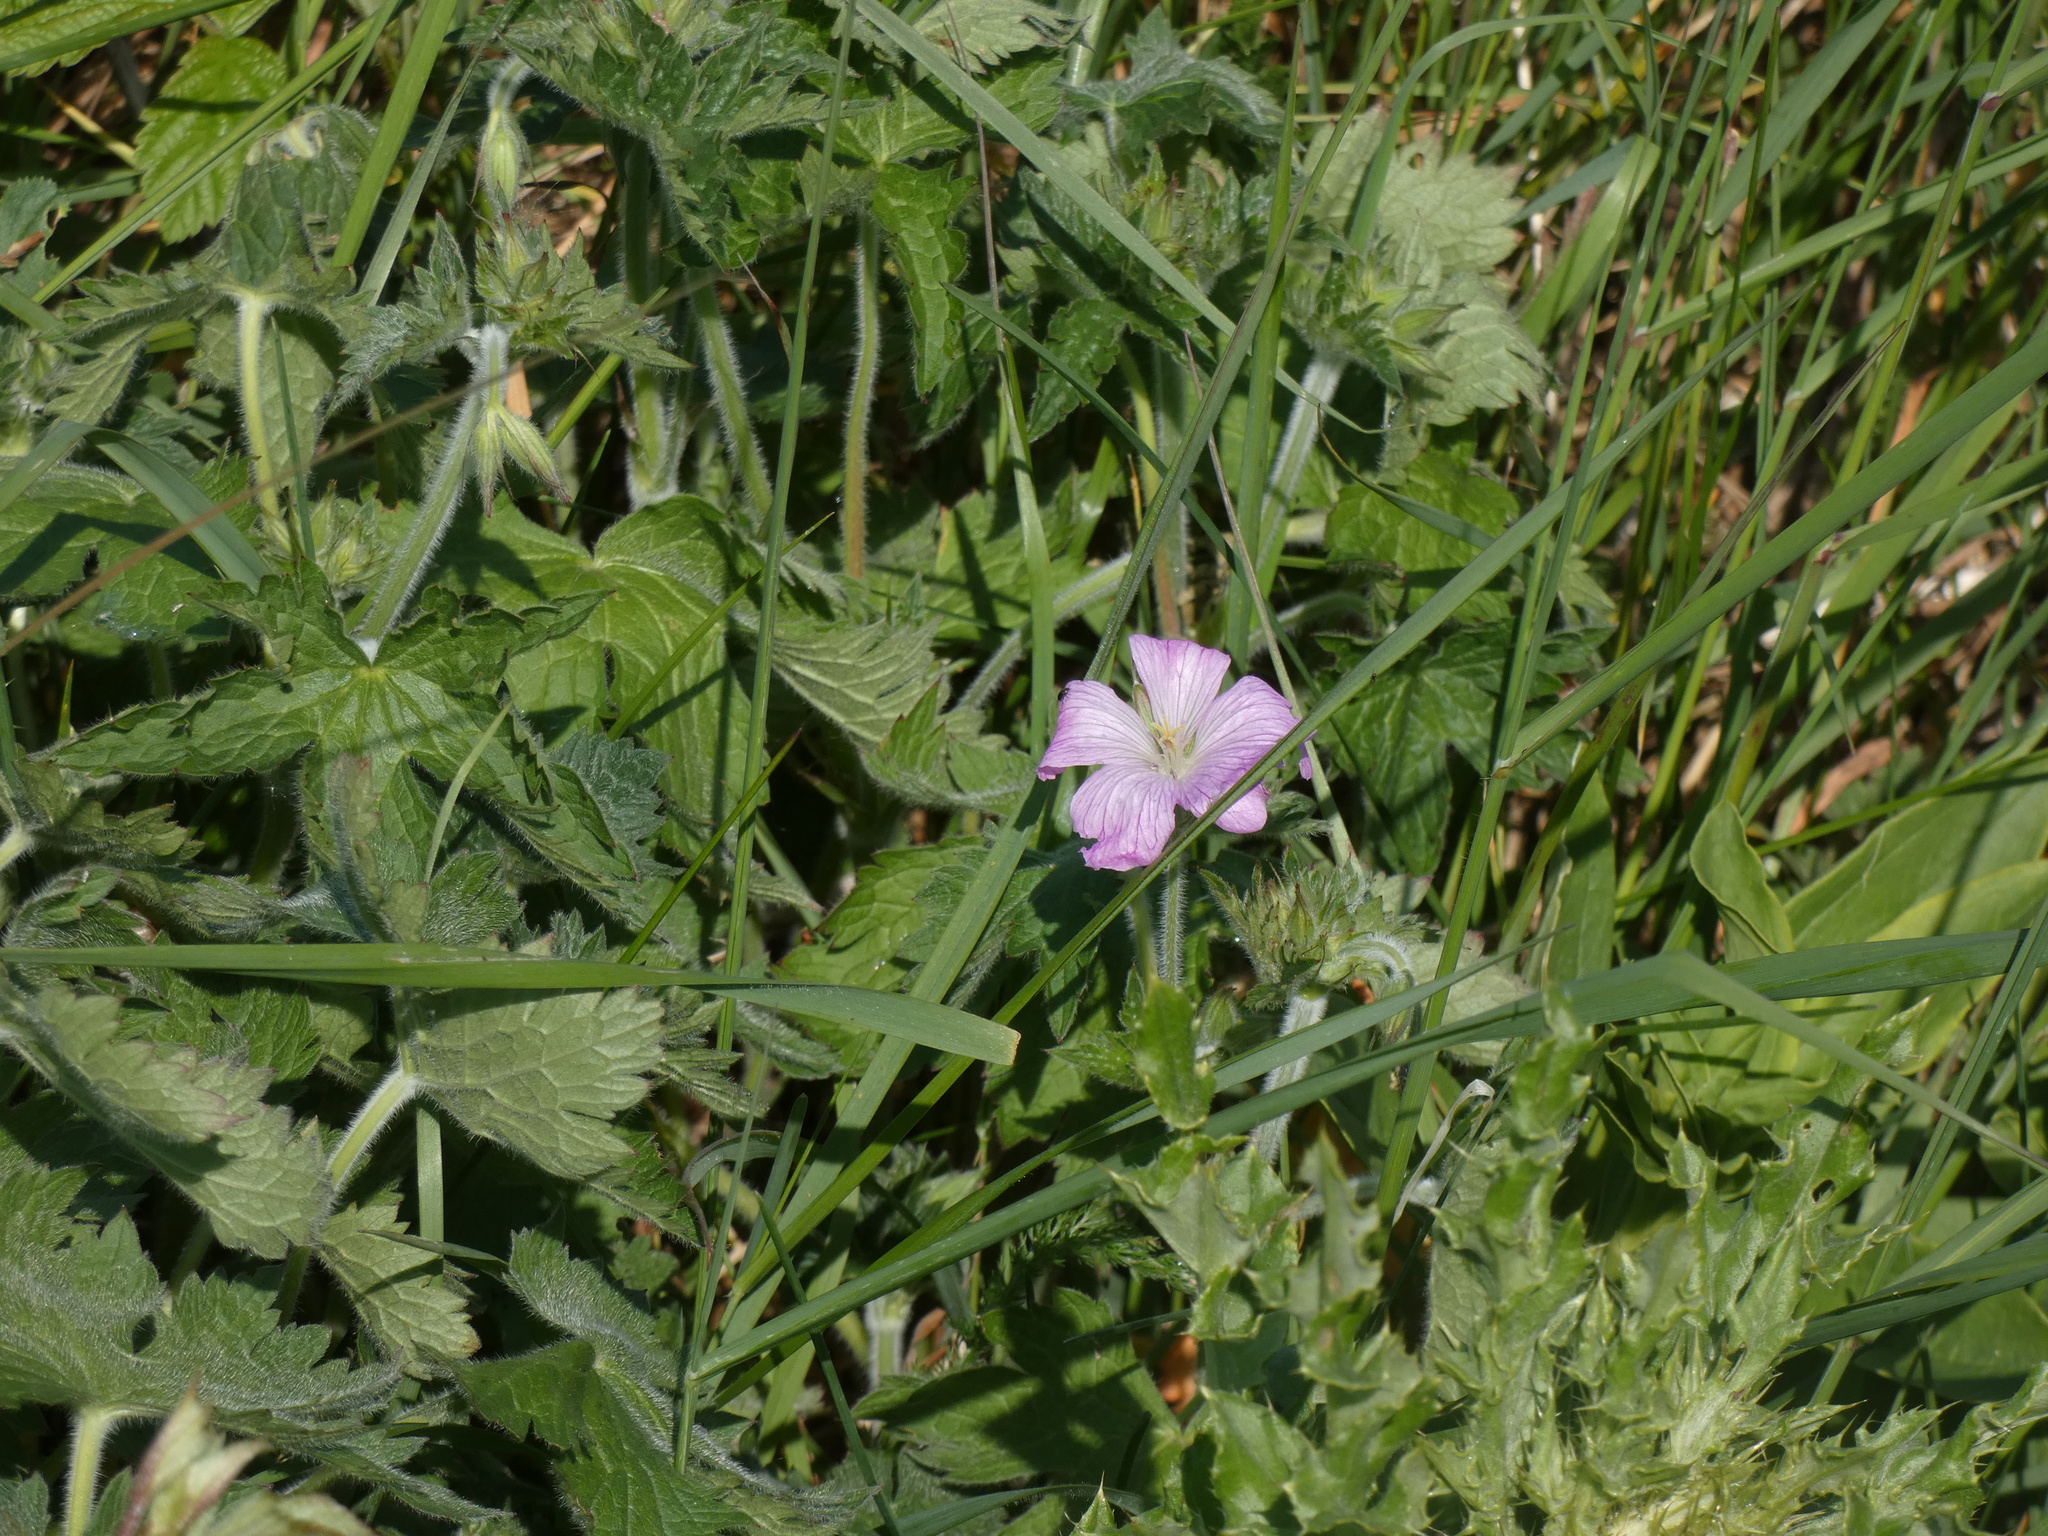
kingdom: Plantae
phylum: Tracheophyta
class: Magnoliopsida
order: Geraniales
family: Geraniaceae
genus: Geranium
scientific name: Geranium oxonianum
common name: Druce's crane's-bill
